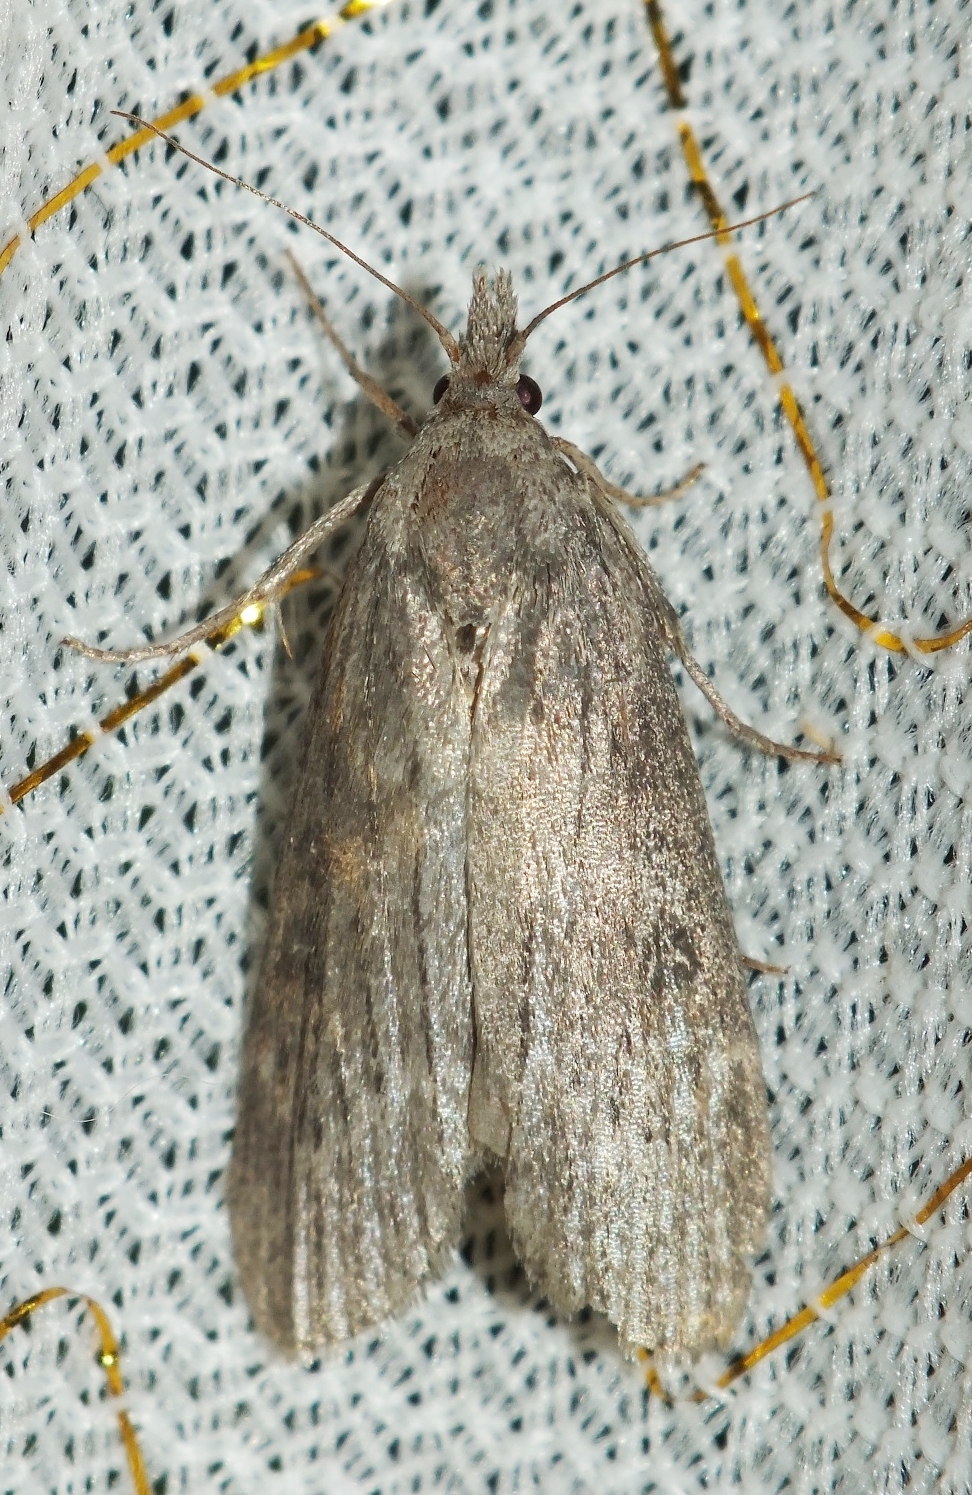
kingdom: Animalia
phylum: Arthropoda
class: Insecta
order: Lepidoptera
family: Pyralidae
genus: Lamoria
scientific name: Lamoria anella
